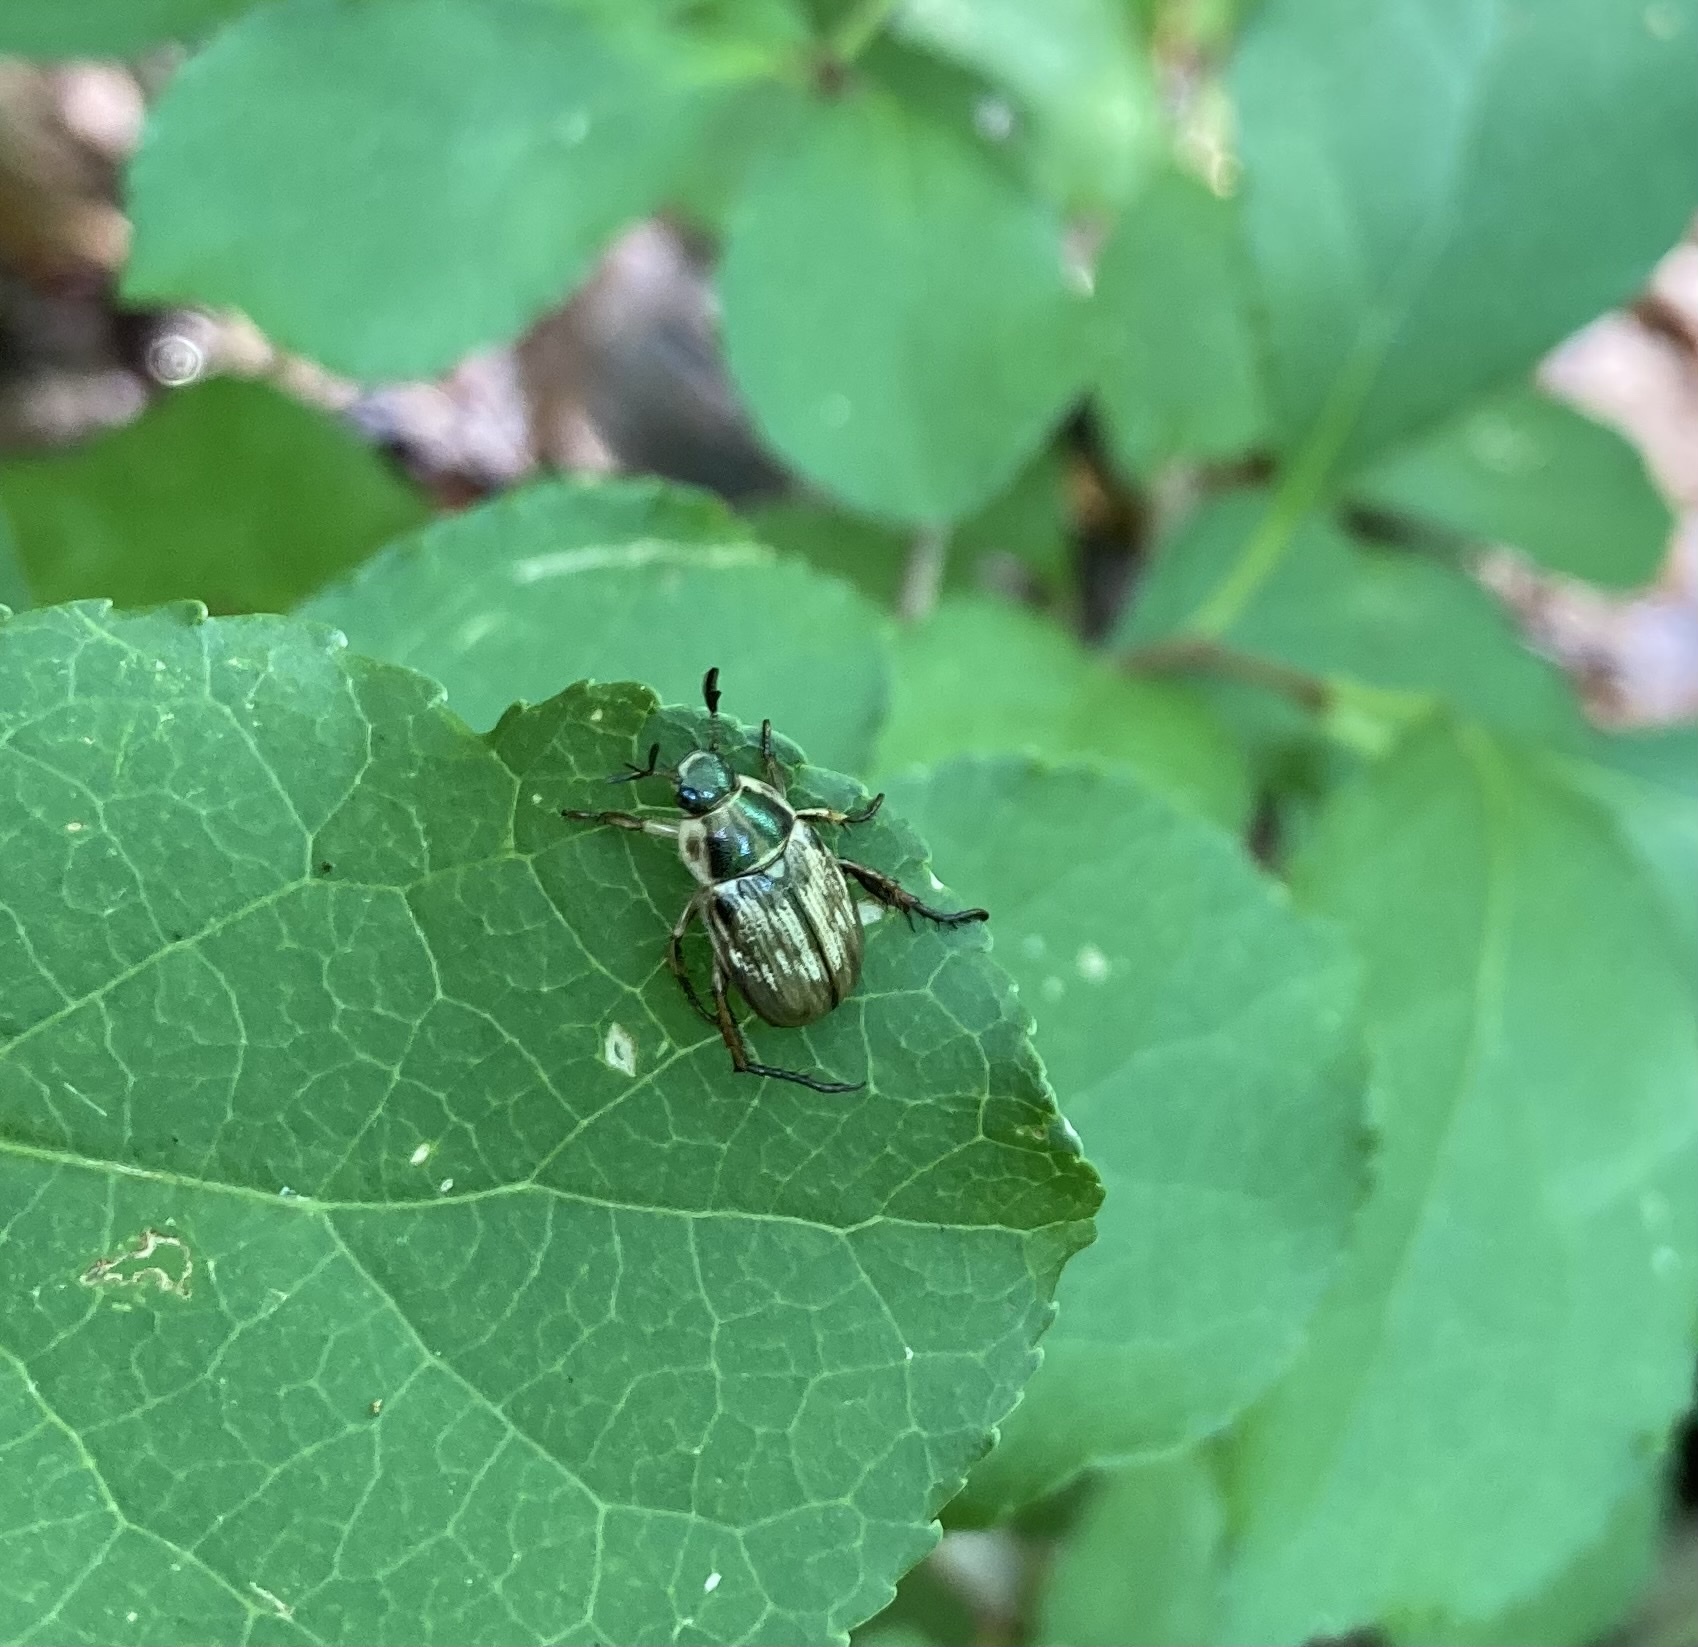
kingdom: Animalia
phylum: Arthropoda
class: Insecta
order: Coleoptera
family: Scarabaeidae
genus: Exomala
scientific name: Exomala orientalis
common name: Oriental beetle
